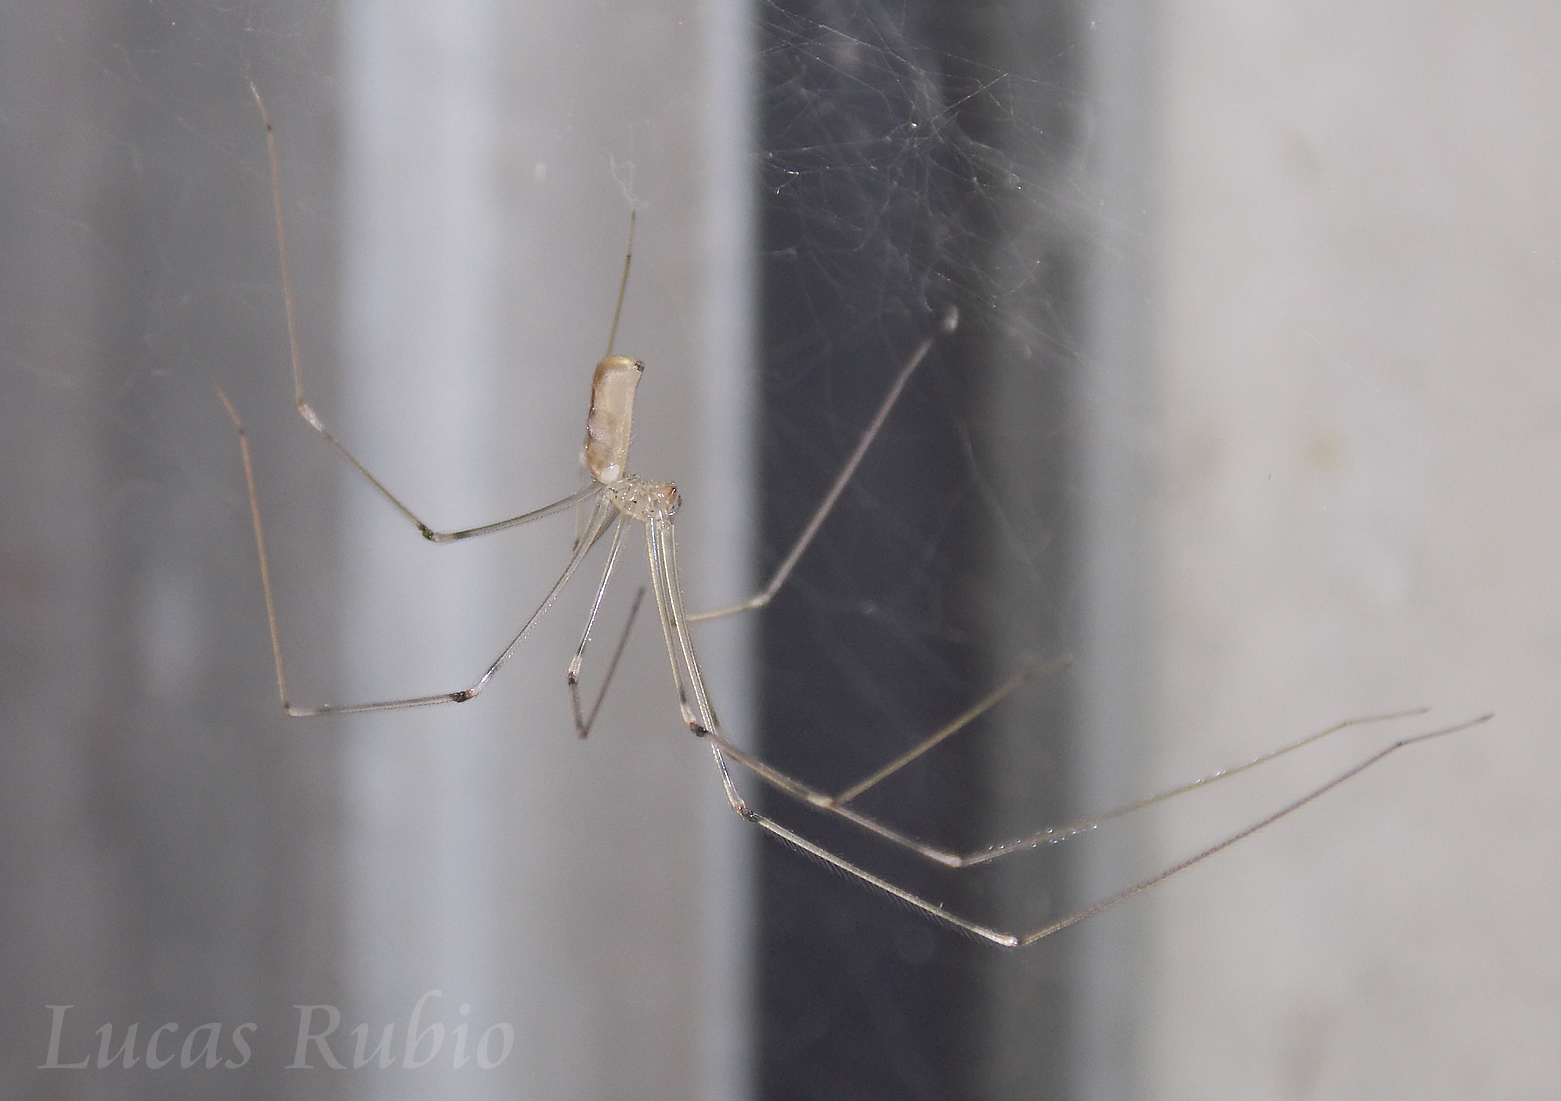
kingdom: Animalia
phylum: Arthropoda
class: Arachnida
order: Araneae
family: Pholcidae
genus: Pholcus
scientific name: Pholcus phalangioides
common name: Longbodied cellar spider
